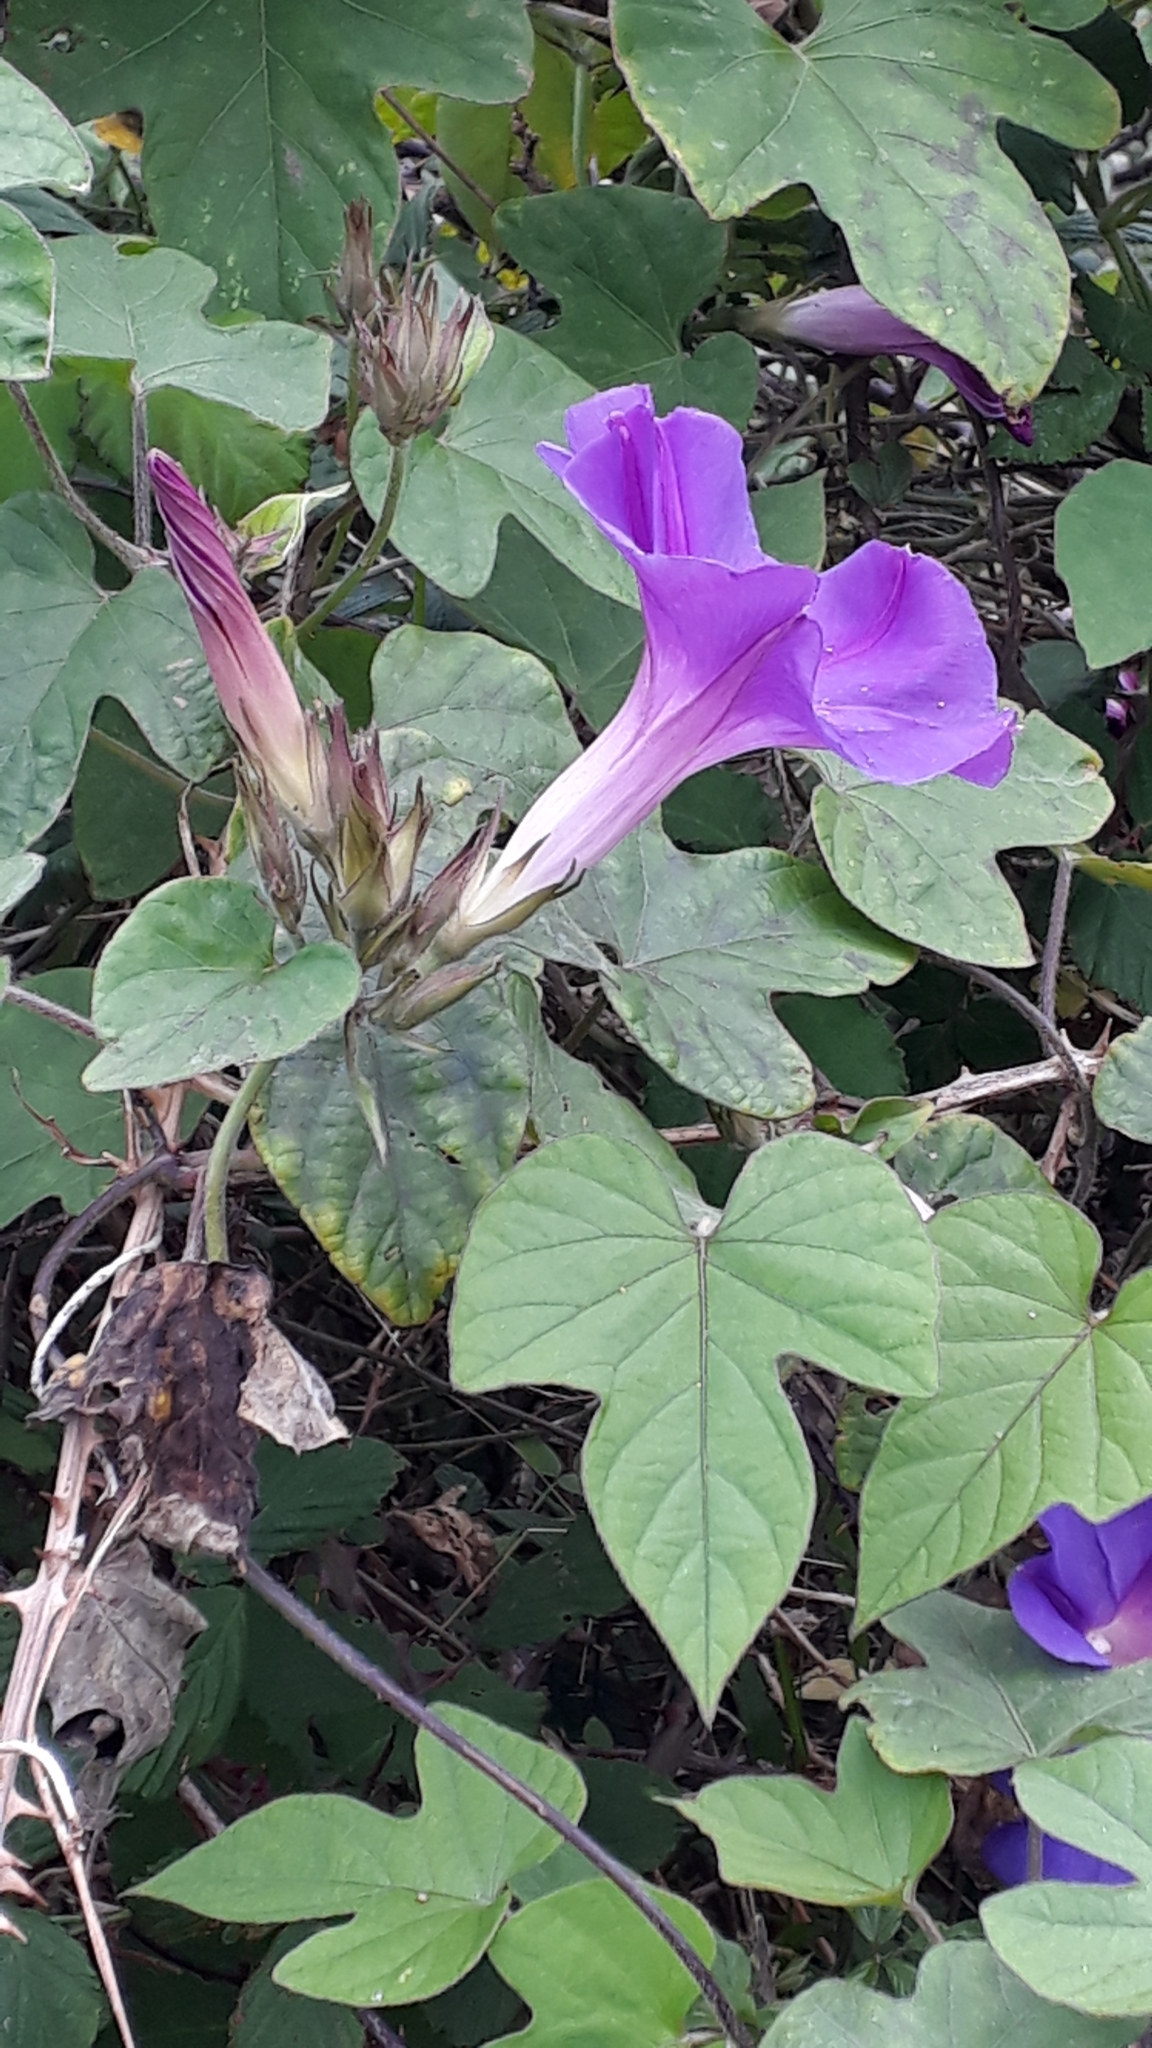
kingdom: Plantae
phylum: Tracheophyta
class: Magnoliopsida
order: Solanales
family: Convolvulaceae
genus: Ipomoea
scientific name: Ipomoea indica
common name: Blue dawnflower
